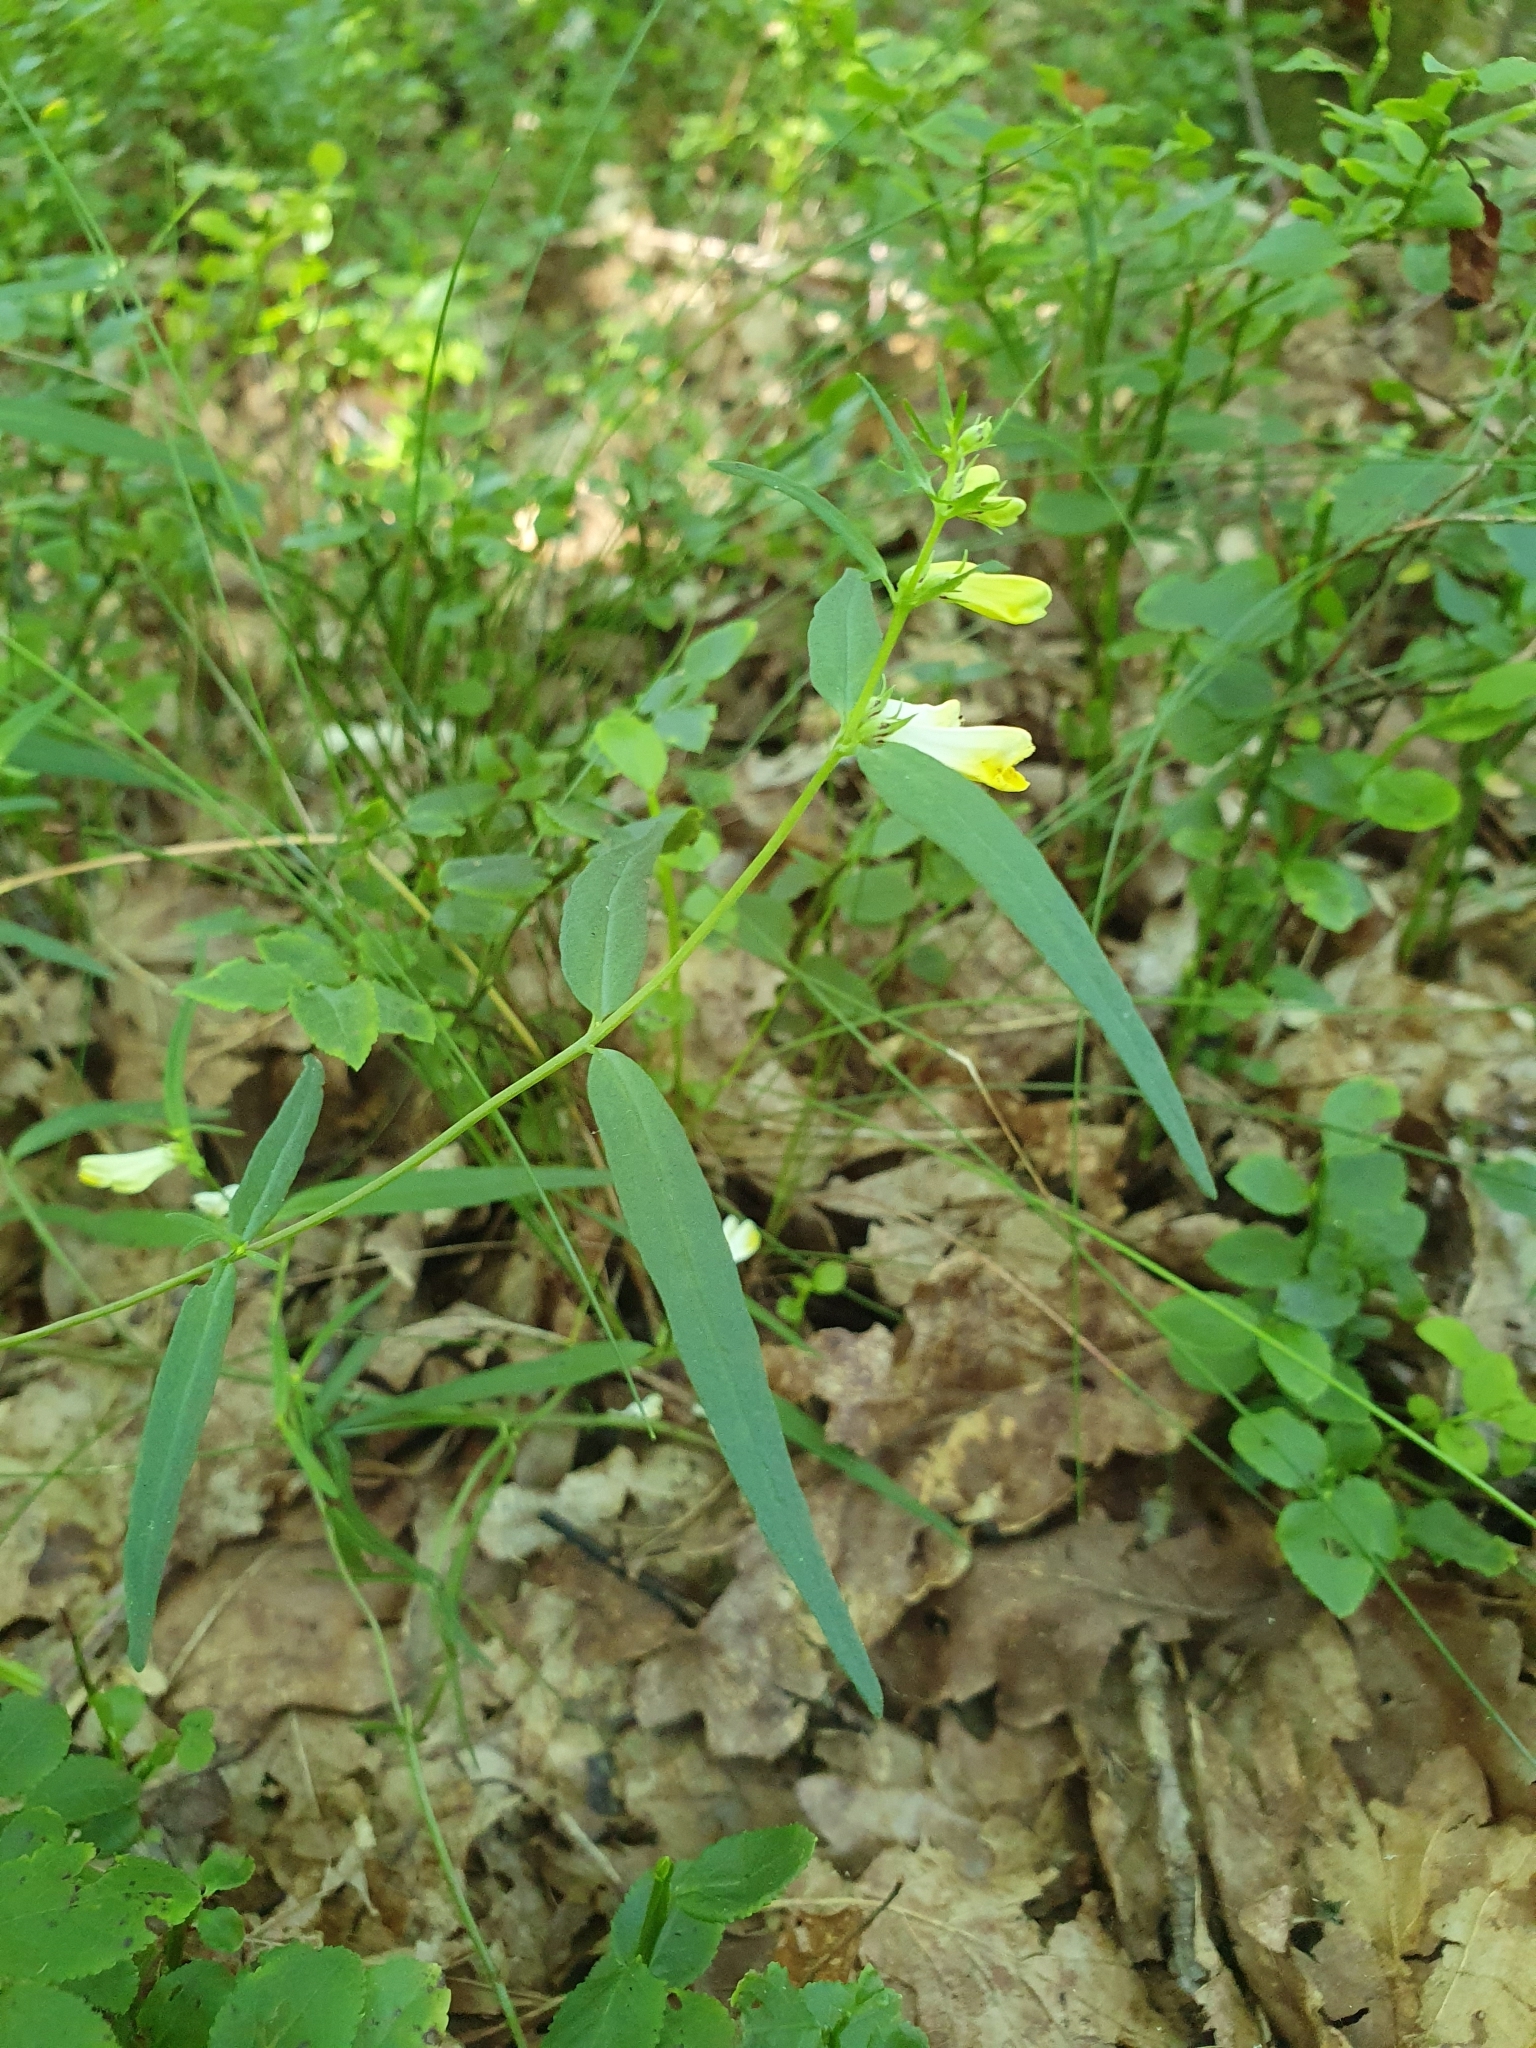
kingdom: Plantae
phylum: Tracheophyta
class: Magnoliopsida
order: Lamiales
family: Orobanchaceae
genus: Melampyrum
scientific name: Melampyrum pratense
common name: Common cow-wheat
